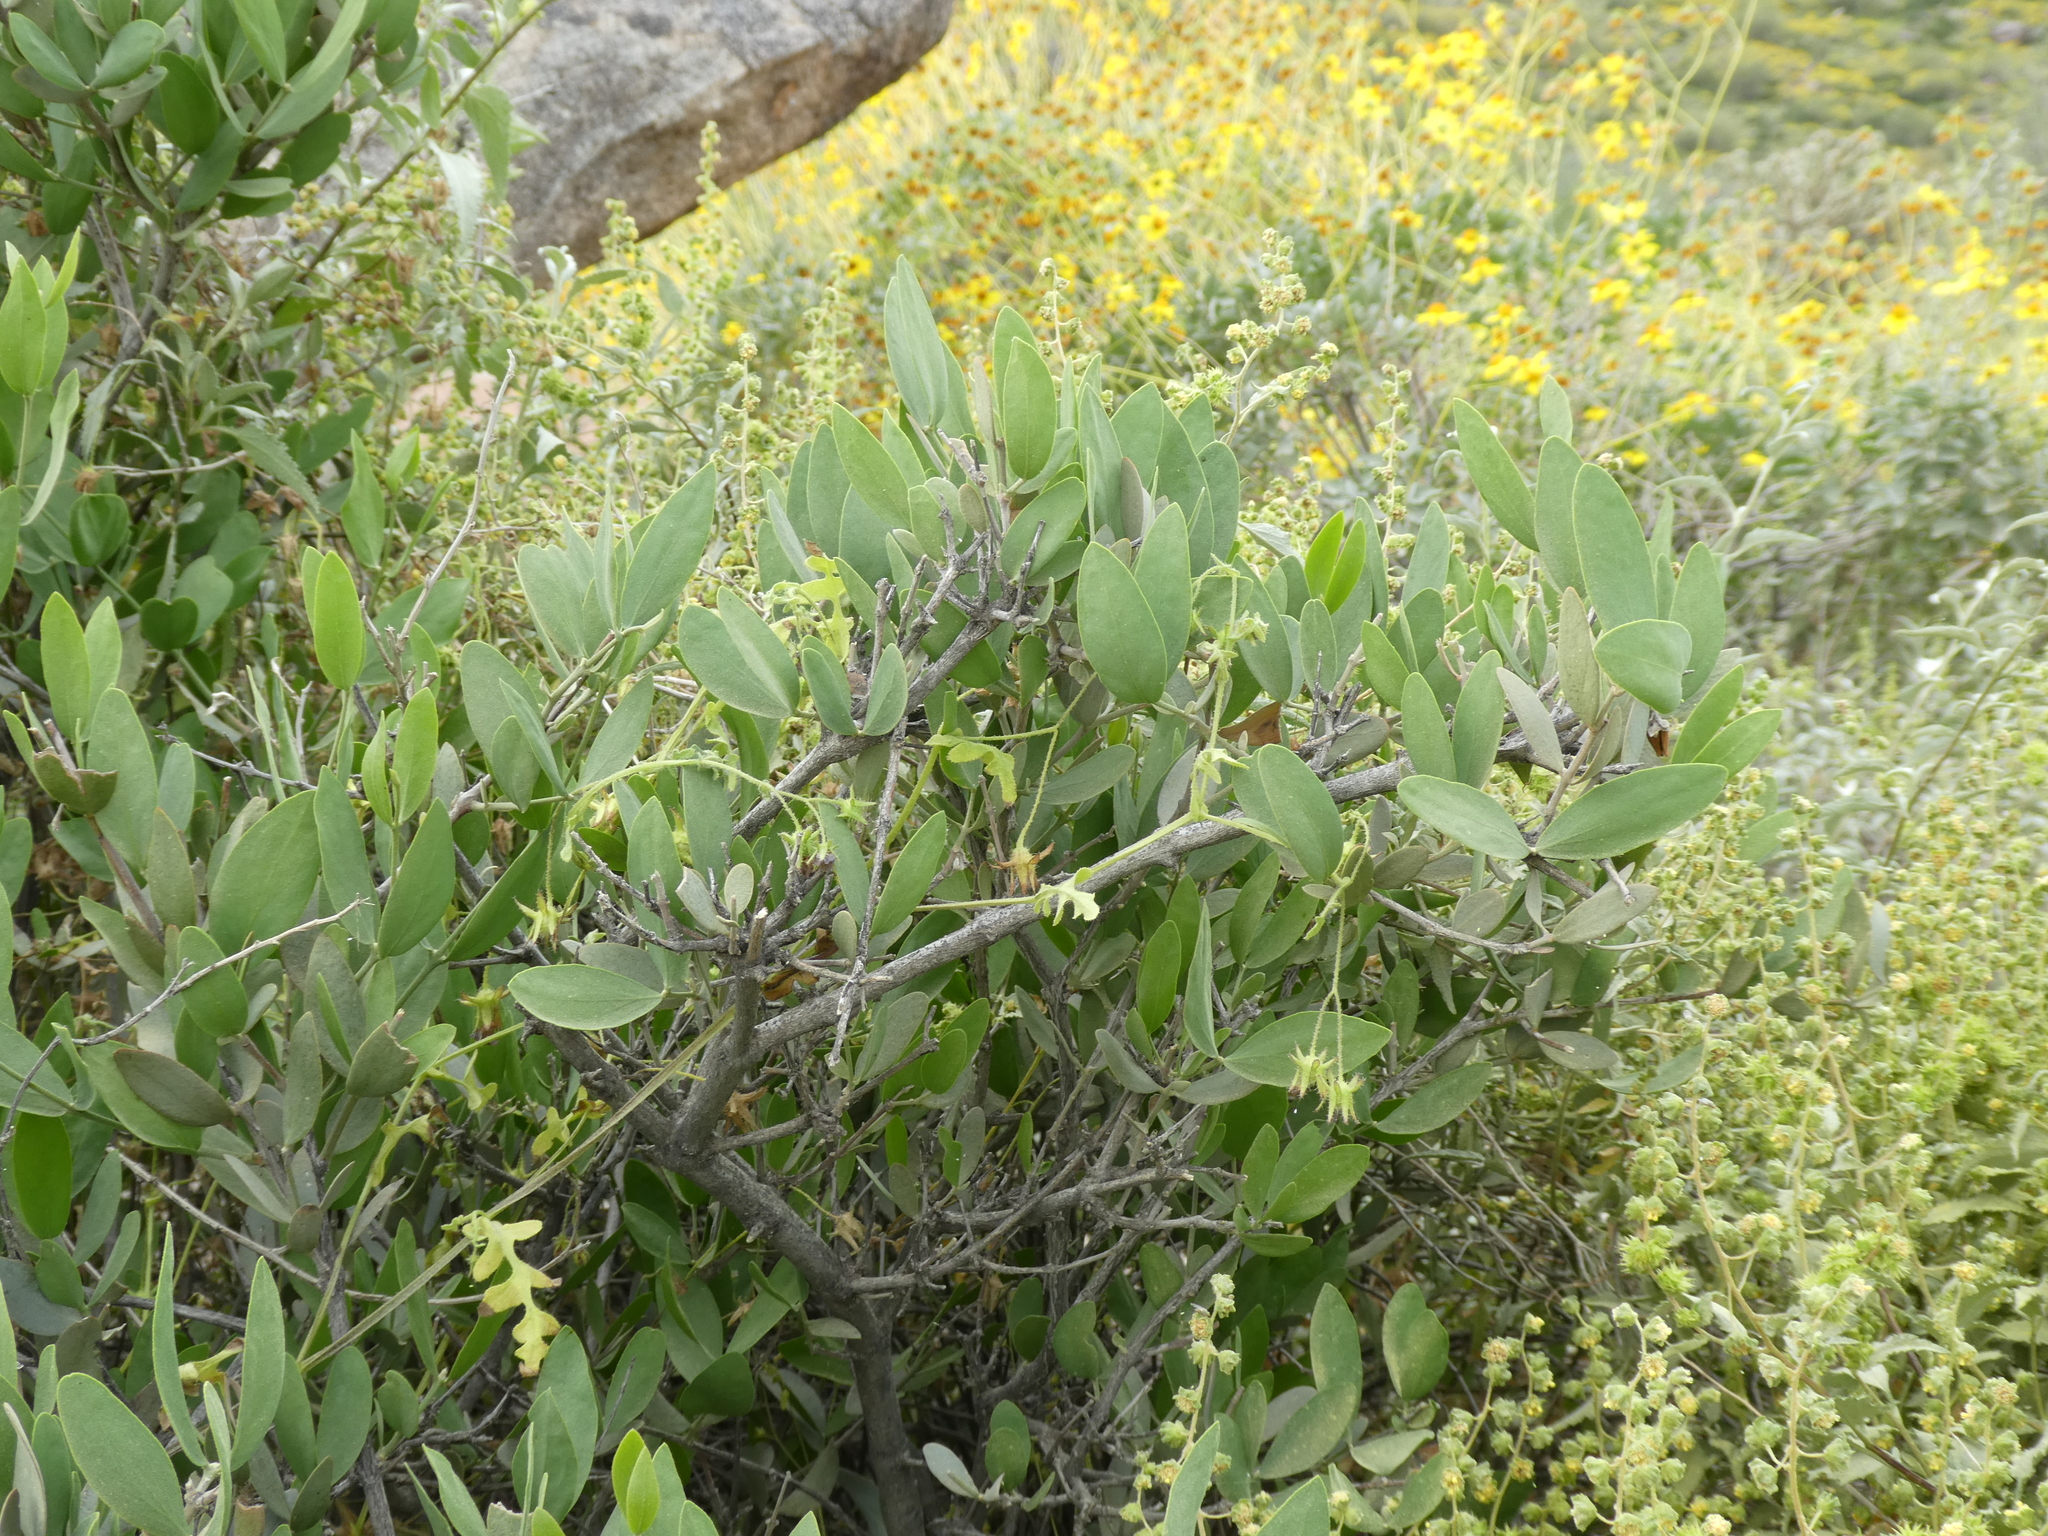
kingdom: Plantae
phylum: Tracheophyta
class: Magnoliopsida
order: Caryophyllales
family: Simmondsiaceae
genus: Simmondsia
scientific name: Simmondsia chinensis
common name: Jojoba
